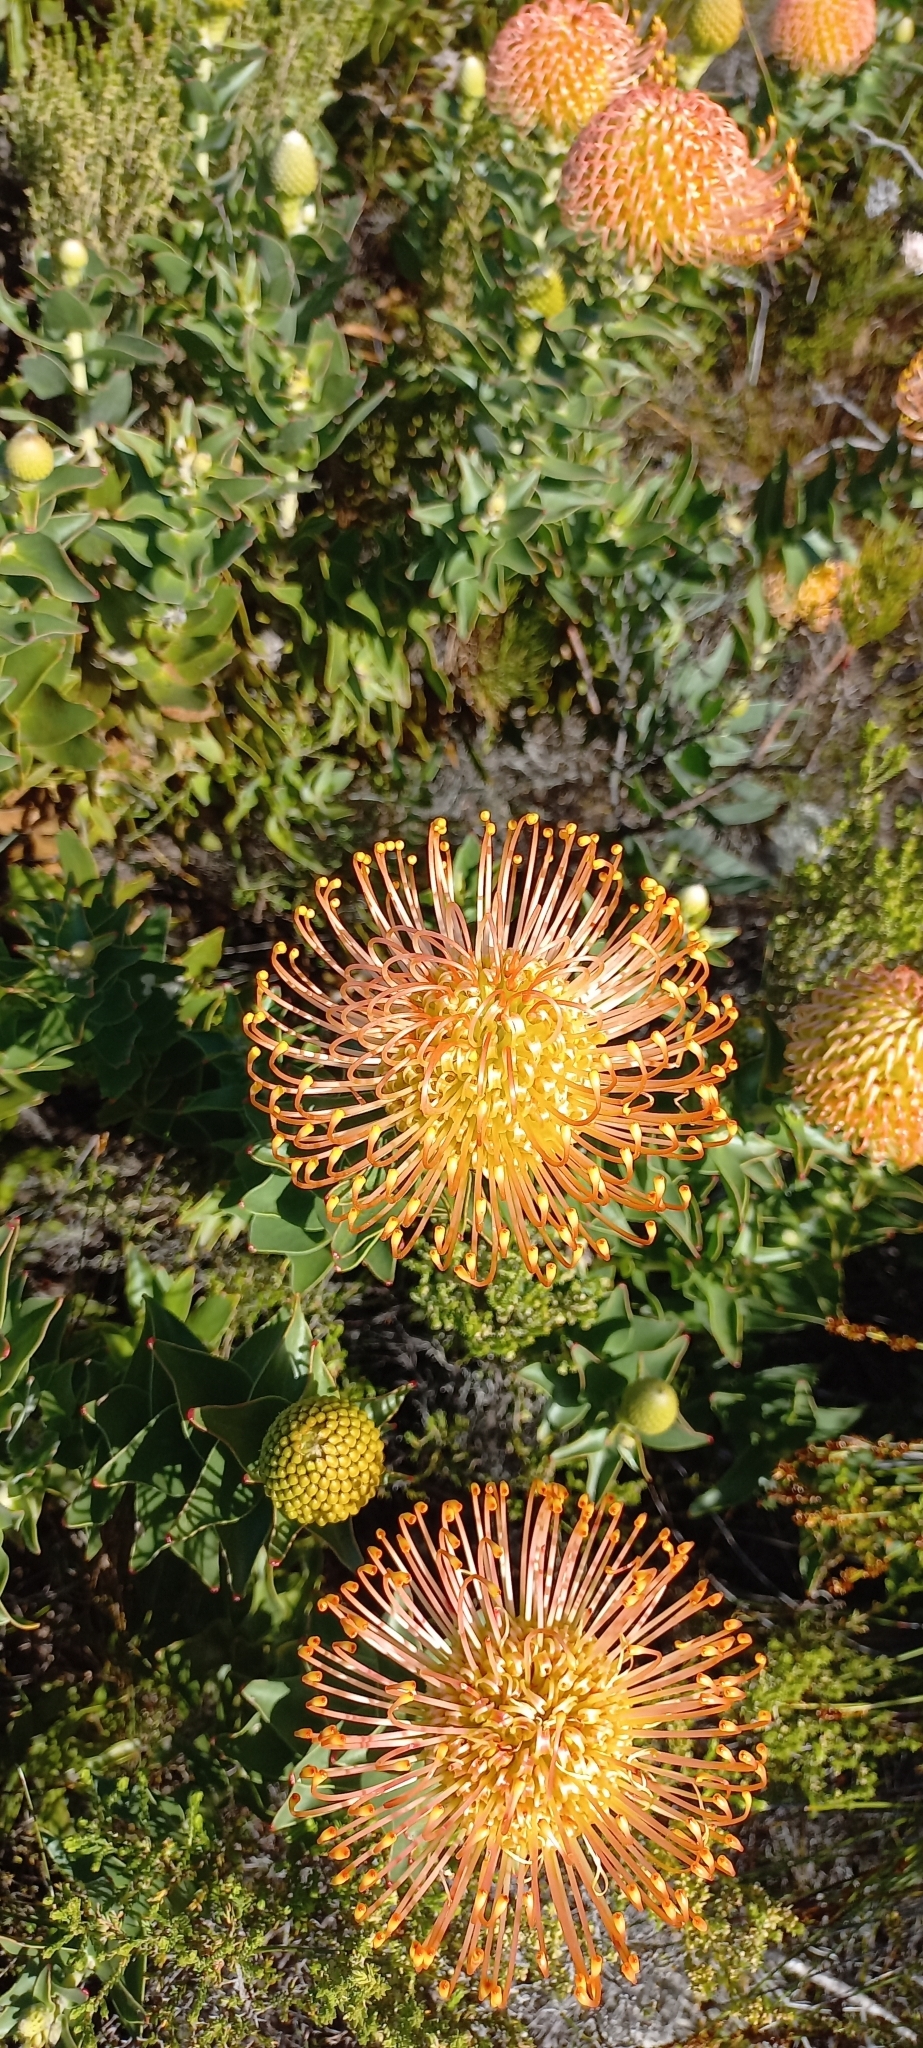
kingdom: Plantae
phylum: Tracheophyta
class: Magnoliopsida
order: Proteales
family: Proteaceae
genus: Leucospermum
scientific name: Leucospermum cordifolium
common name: Red pincushion-protea
